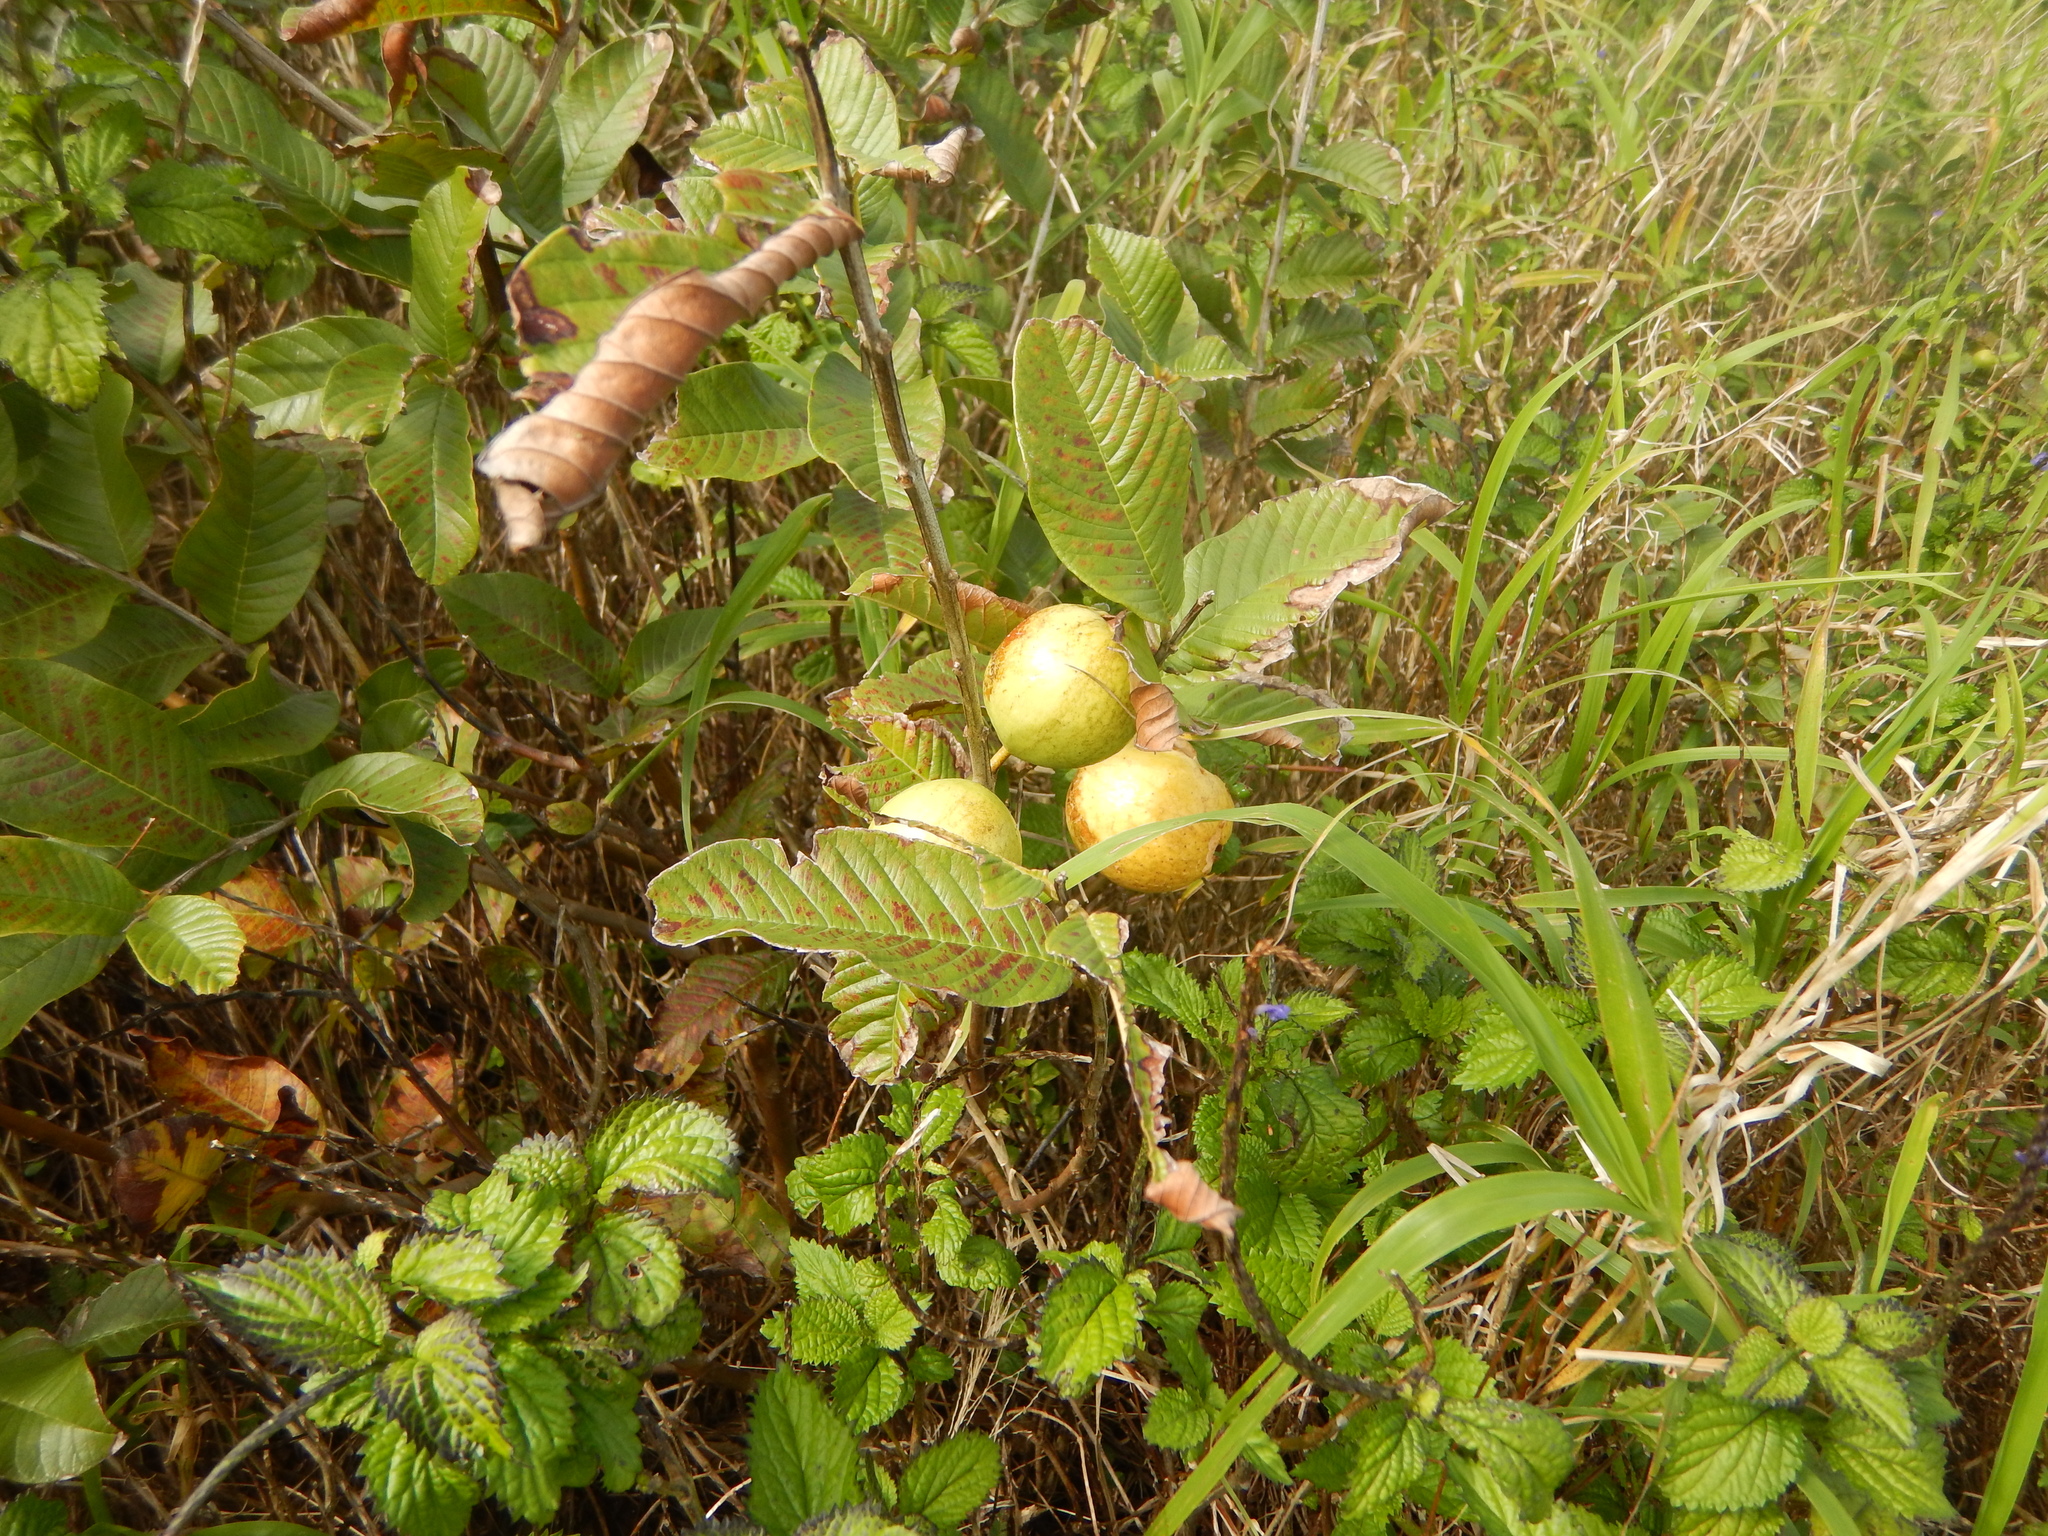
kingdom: Plantae
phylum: Tracheophyta
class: Magnoliopsida
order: Myrtales
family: Myrtaceae
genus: Psidium
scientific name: Psidium guajava
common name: Guava
